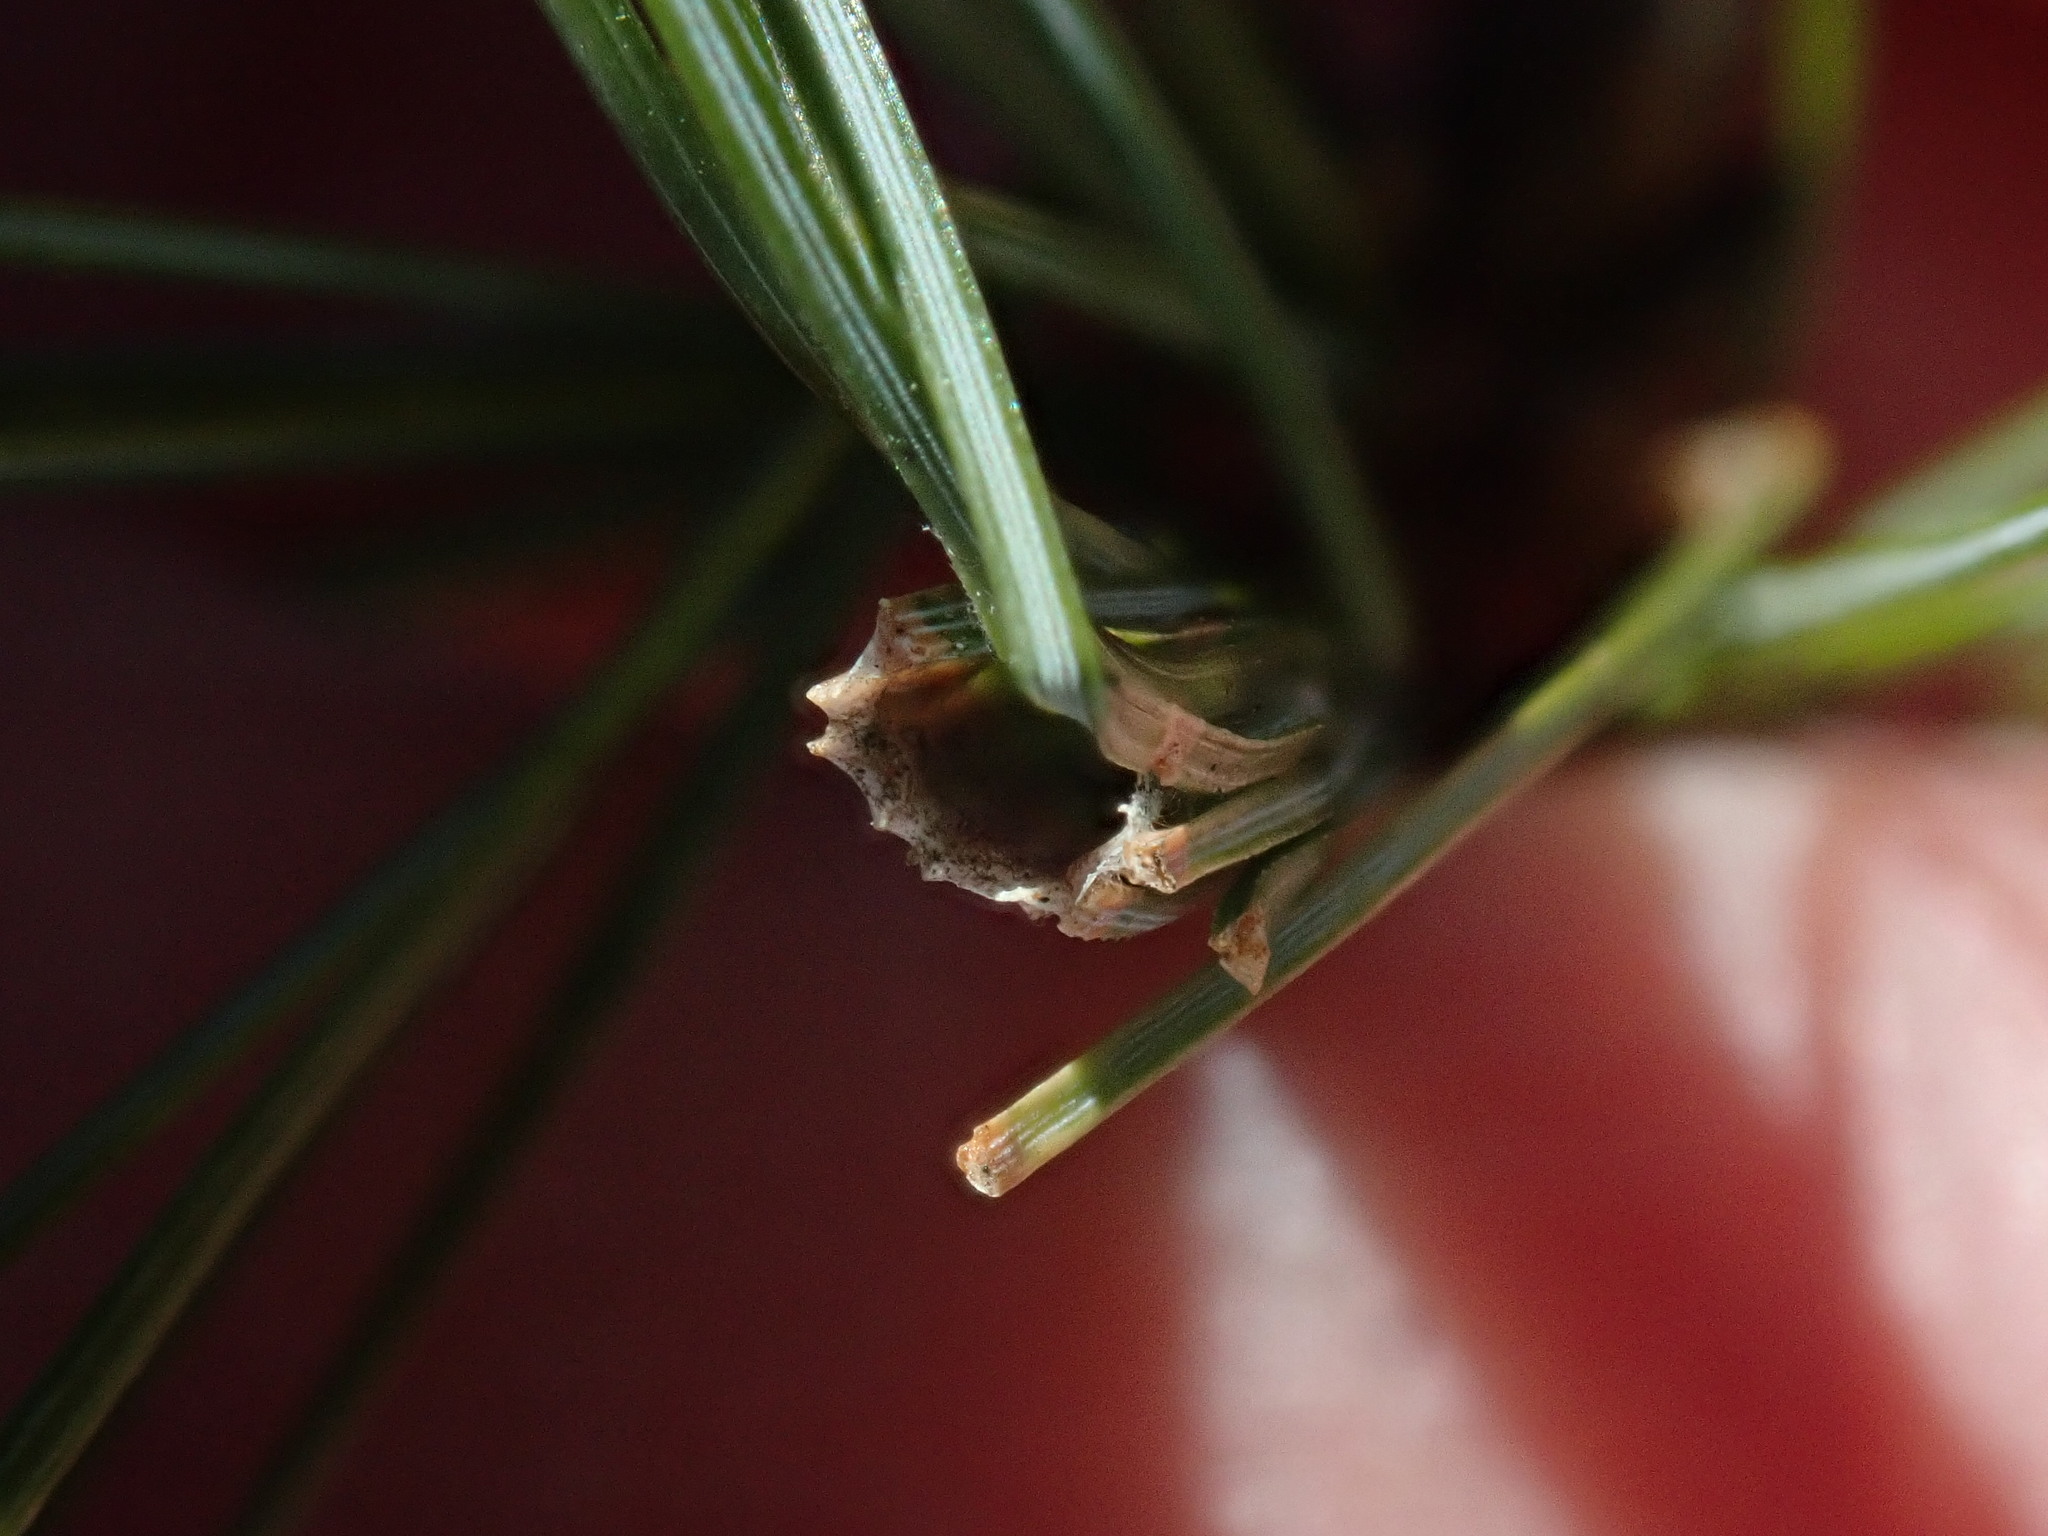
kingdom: Animalia
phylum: Arthropoda
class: Insecta
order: Lepidoptera
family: Tortricidae
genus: Argyrotaenia
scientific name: Argyrotaenia pinatubana
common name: Pine tube moth
